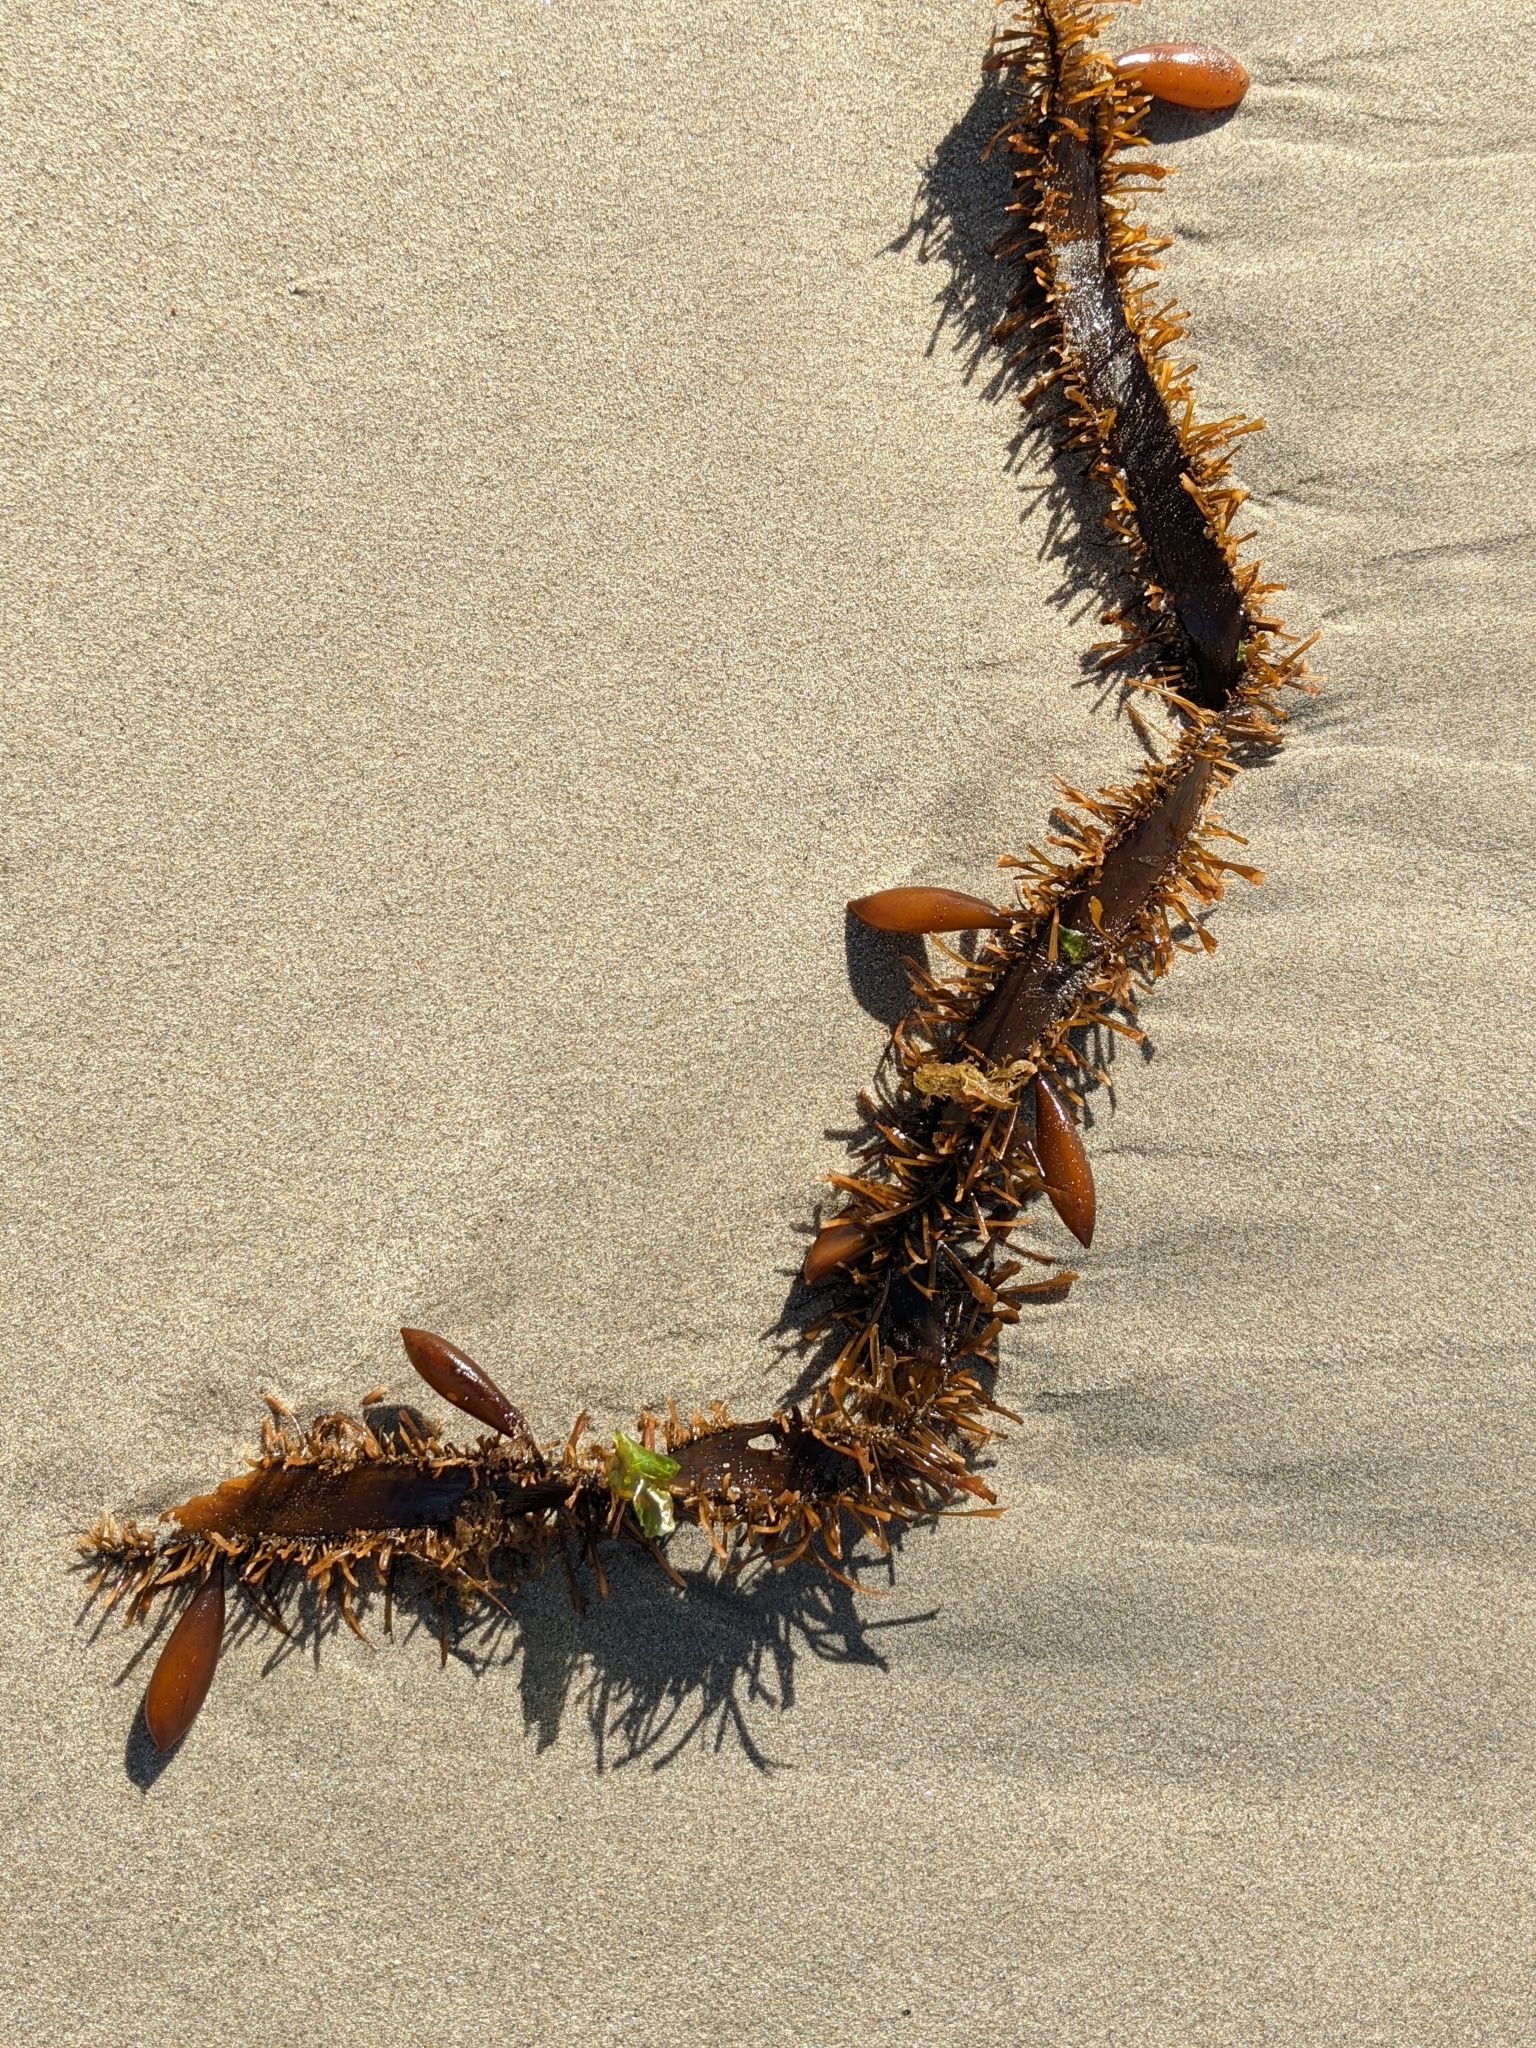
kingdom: Chromista
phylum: Ochrophyta
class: Phaeophyceae
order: Laminariales
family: Lessoniaceae
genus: Egregia
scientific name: Egregia menziesii
